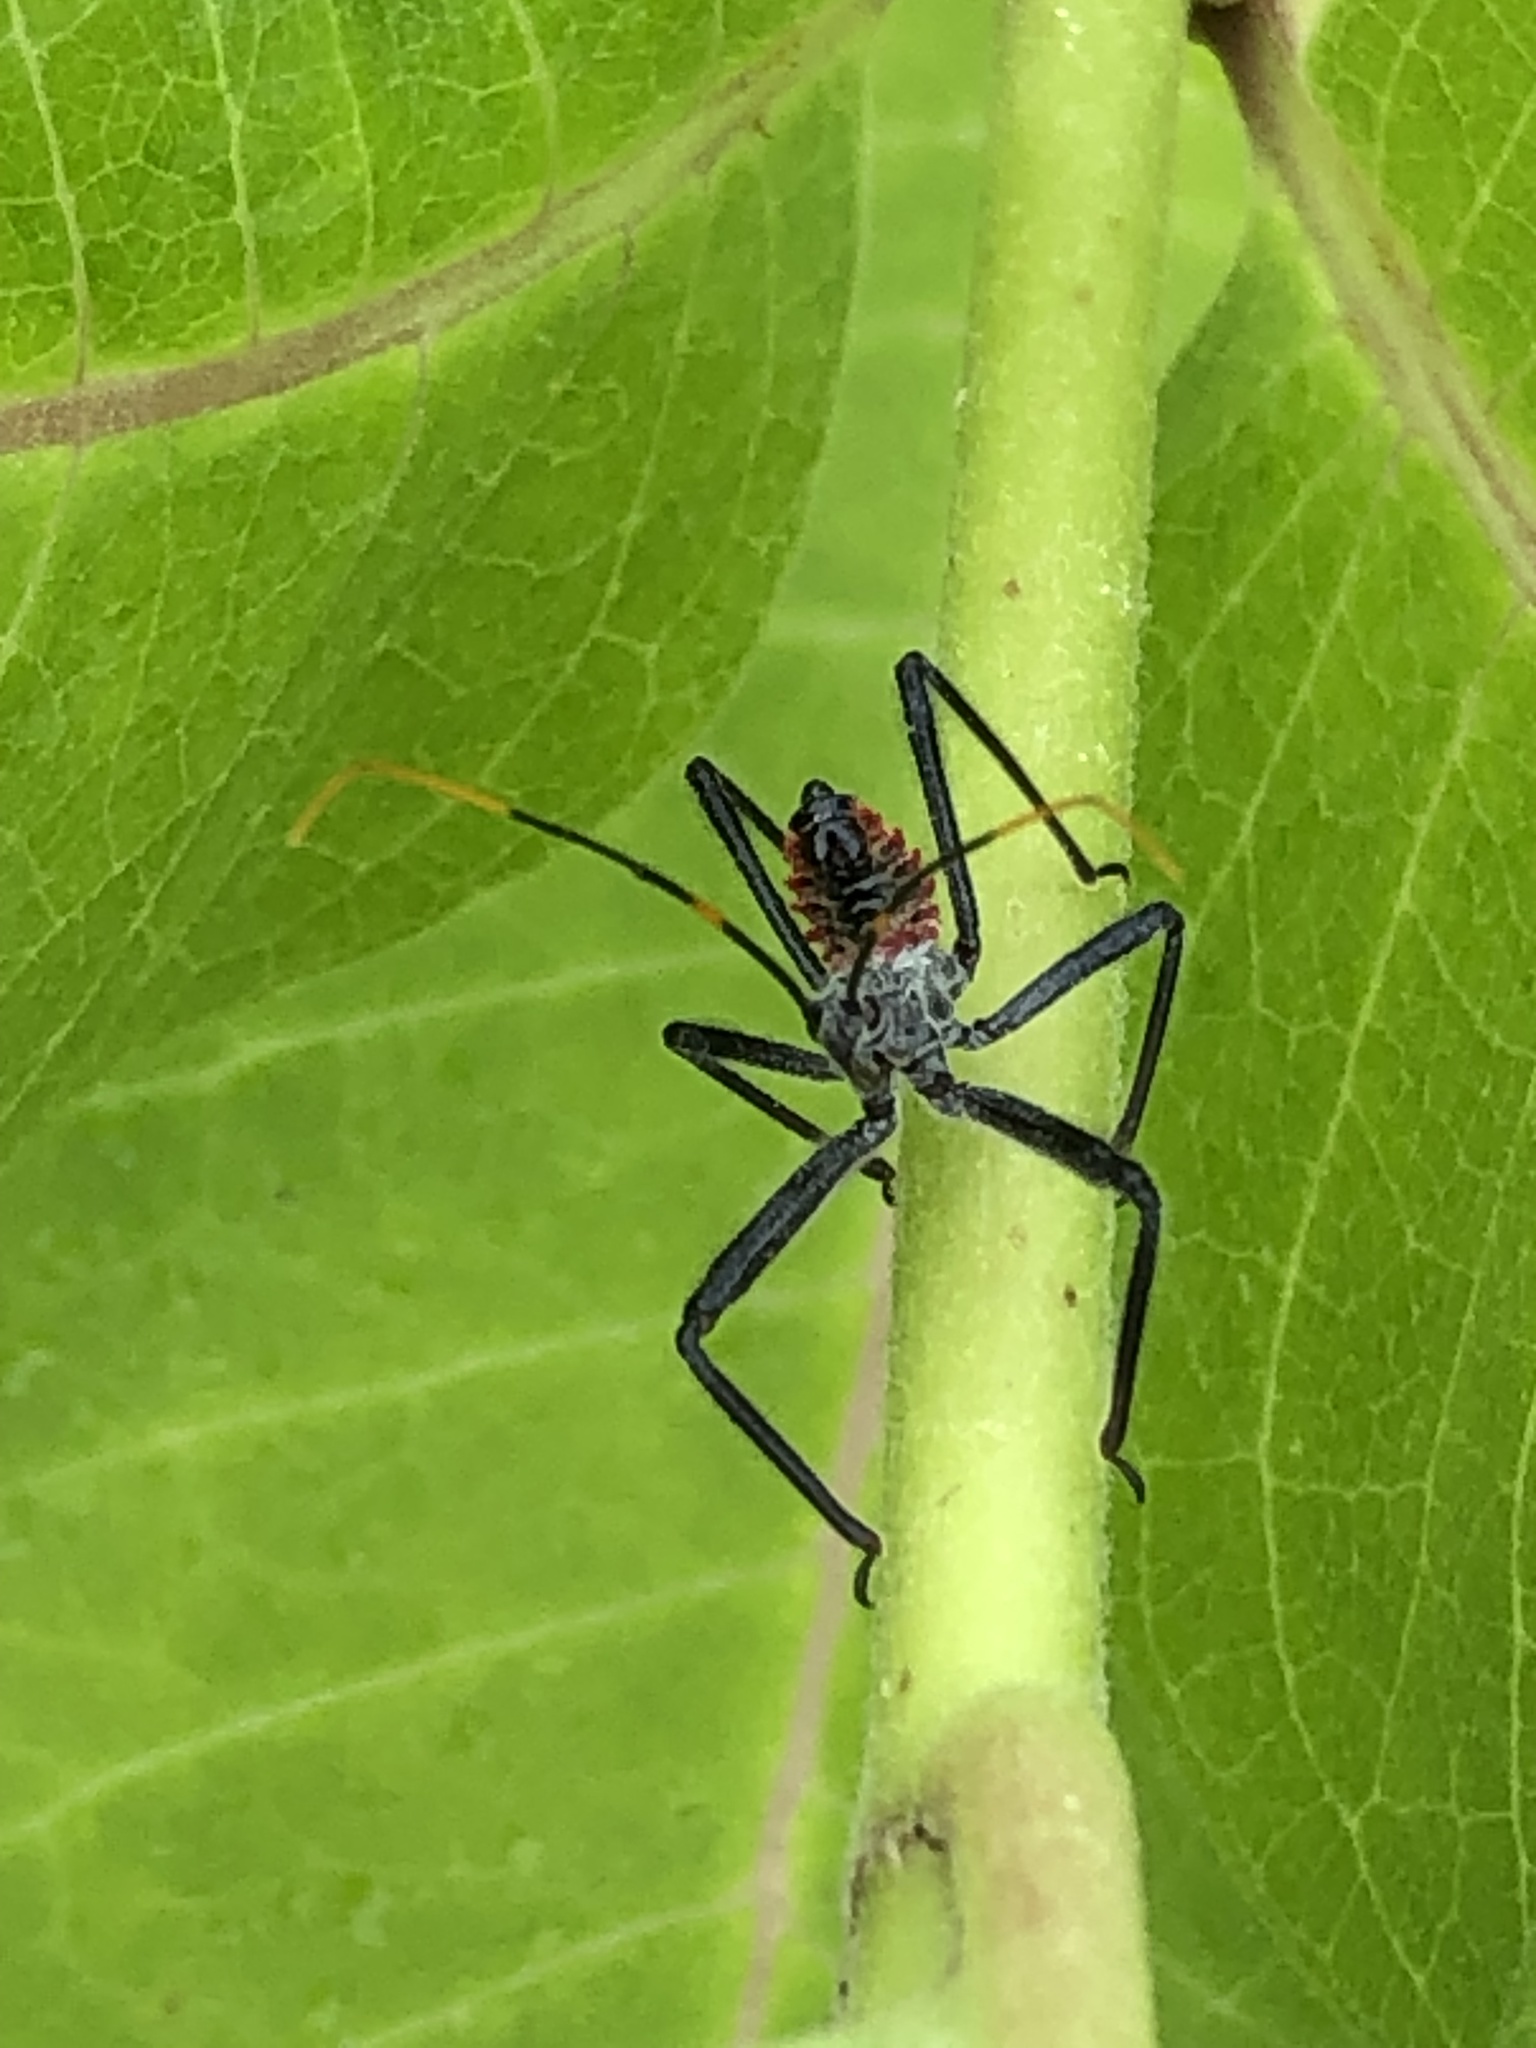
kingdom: Animalia
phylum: Arthropoda
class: Insecta
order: Hemiptera
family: Reduviidae
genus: Arilus
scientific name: Arilus cristatus
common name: North american wheel bug
